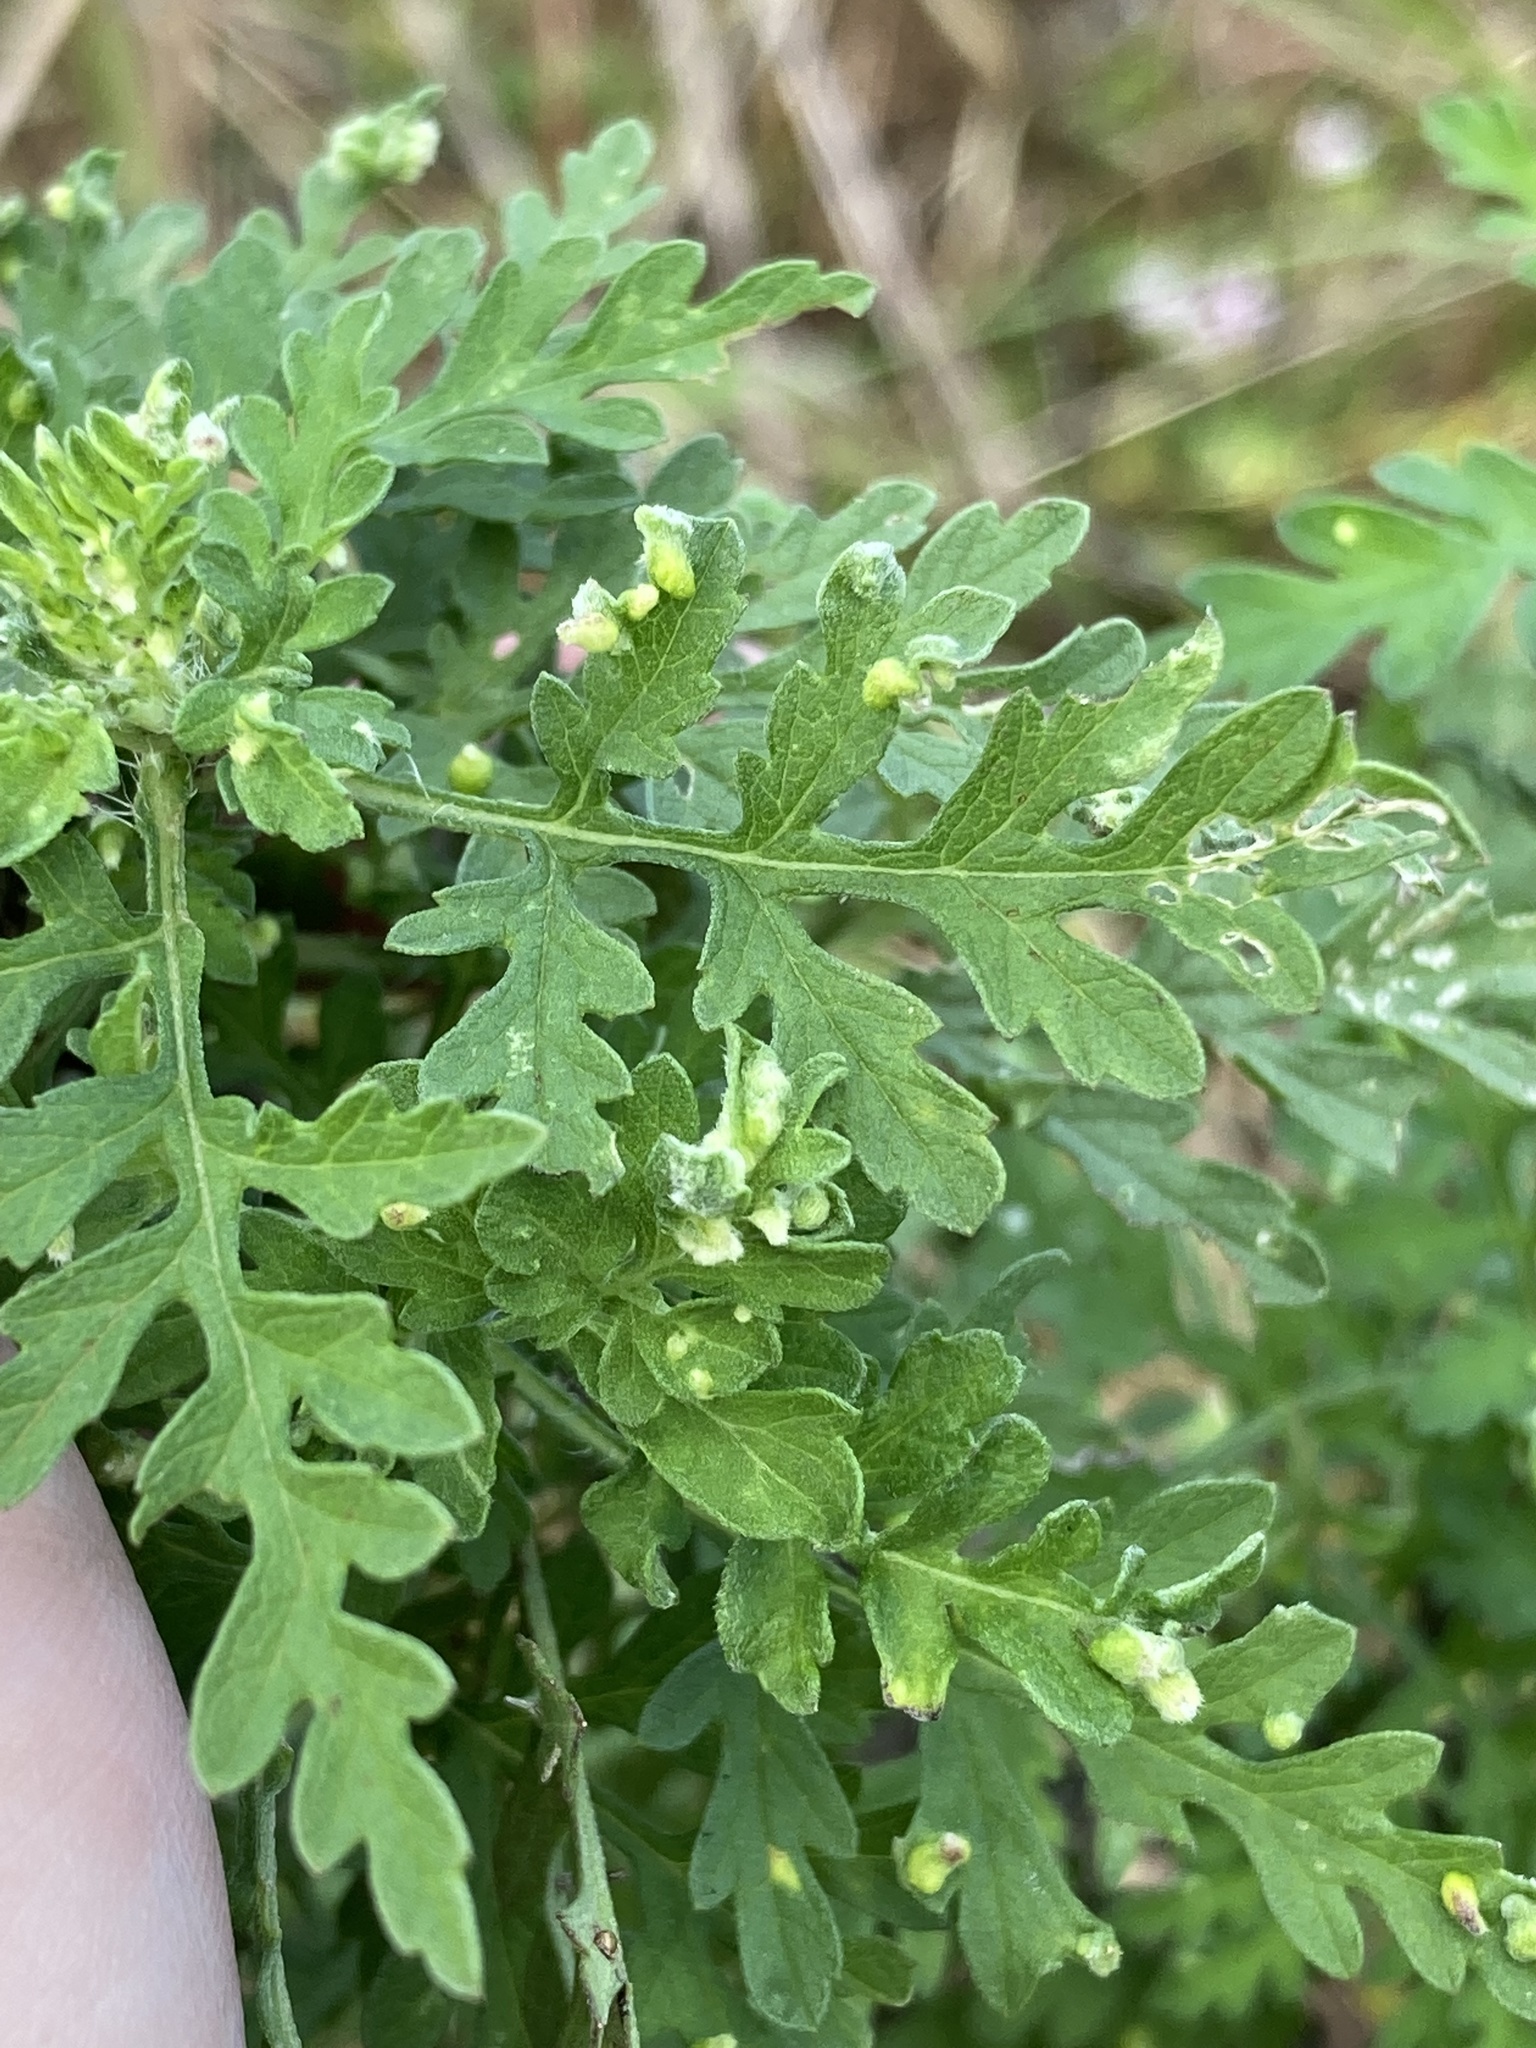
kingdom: Animalia
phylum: Arthropoda
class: Arachnida
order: Trombidiformes
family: Eriophyidae
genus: Aceria
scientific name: Aceria
